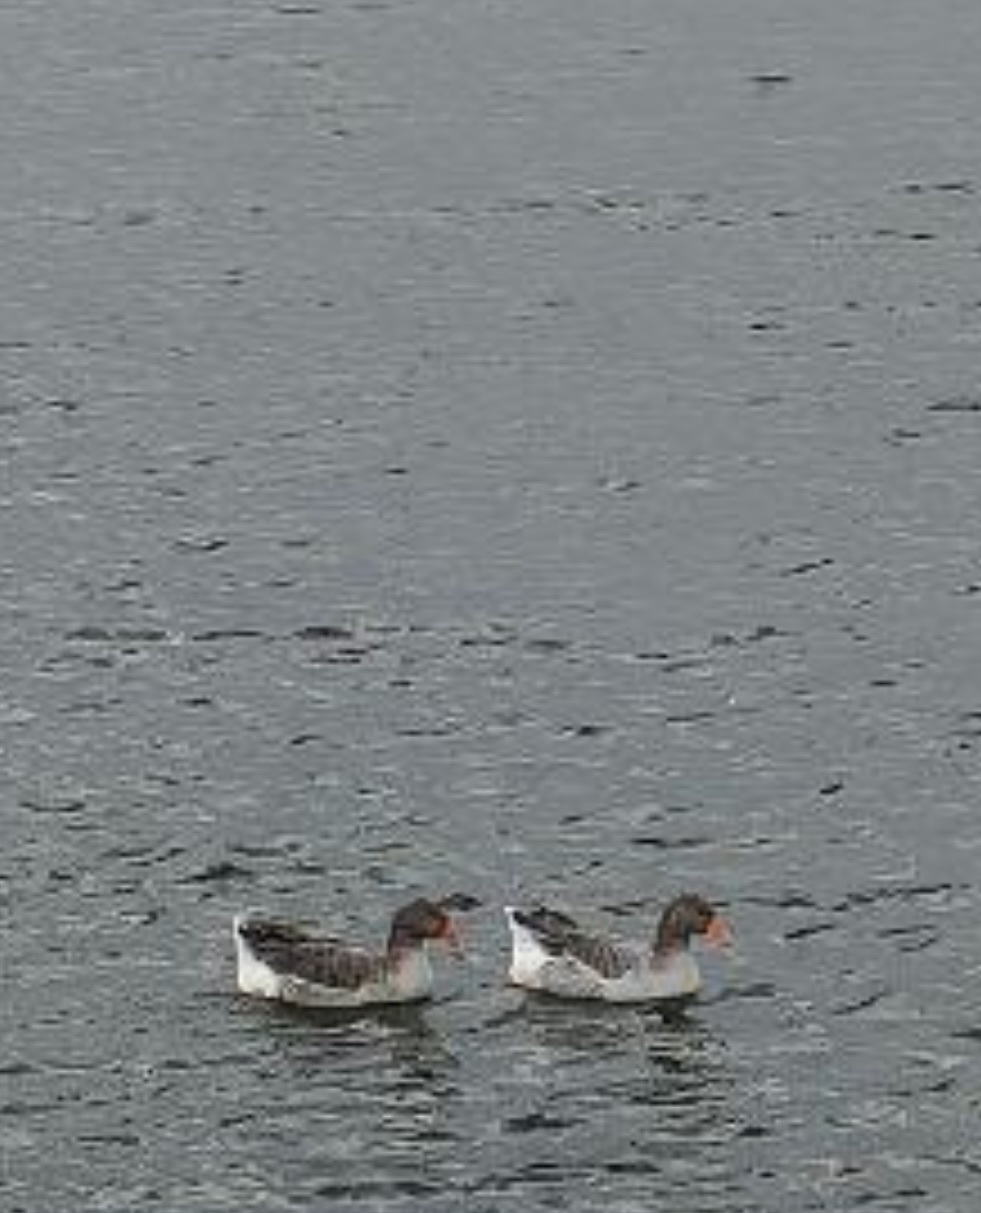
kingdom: Animalia
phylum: Chordata
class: Aves
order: Anseriformes
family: Anatidae
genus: Anser
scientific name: Anser anser
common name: Greylag goose
